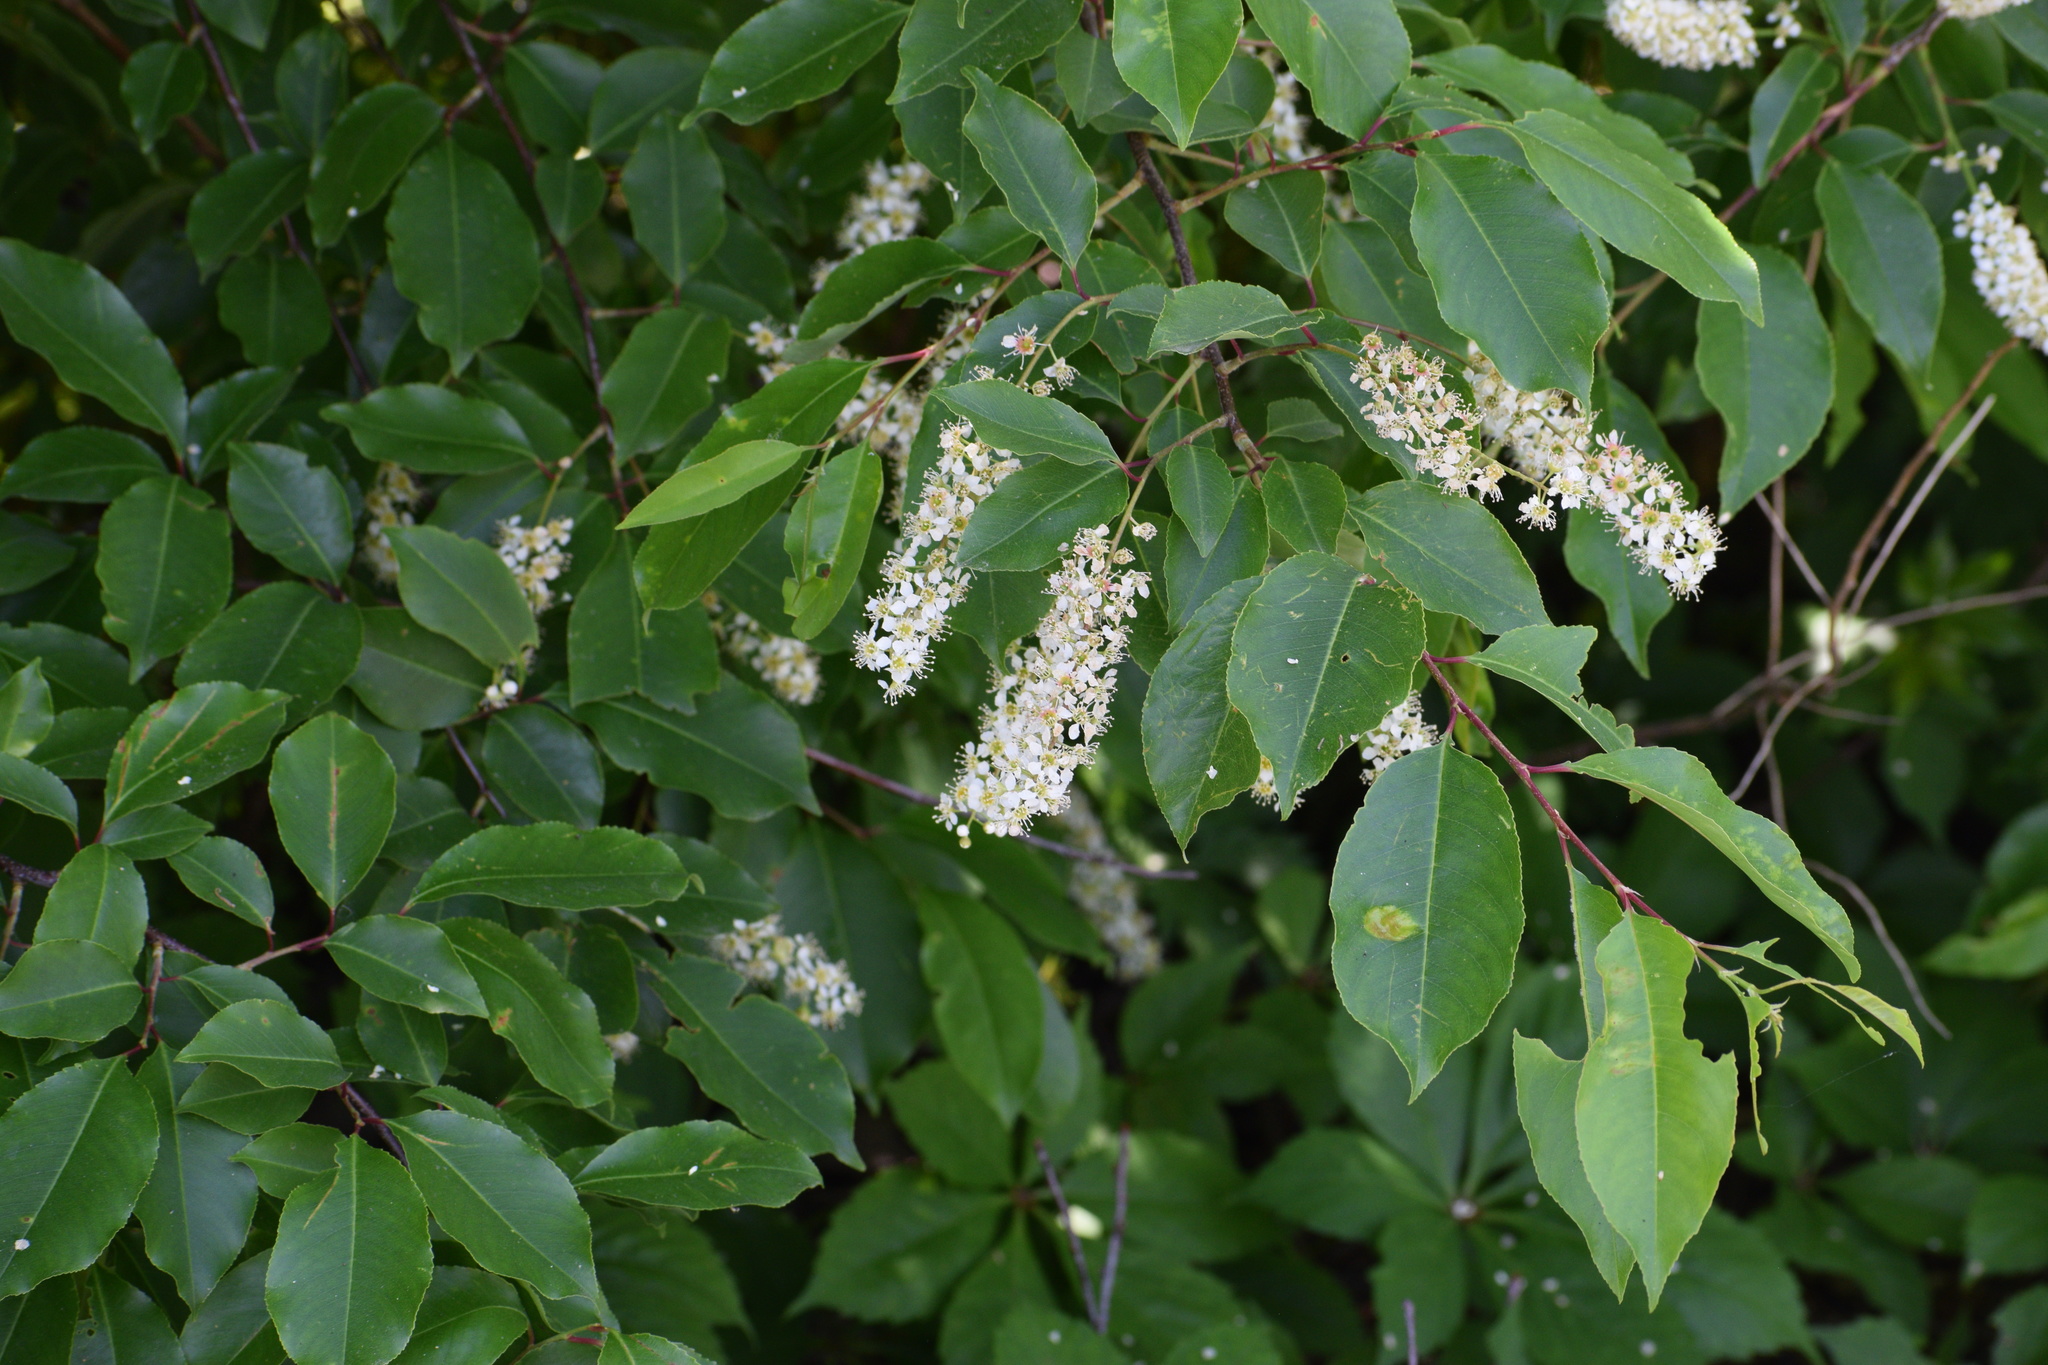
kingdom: Plantae
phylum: Tracheophyta
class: Magnoliopsida
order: Rosales
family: Rosaceae
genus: Prunus
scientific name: Prunus serotina
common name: Black cherry
